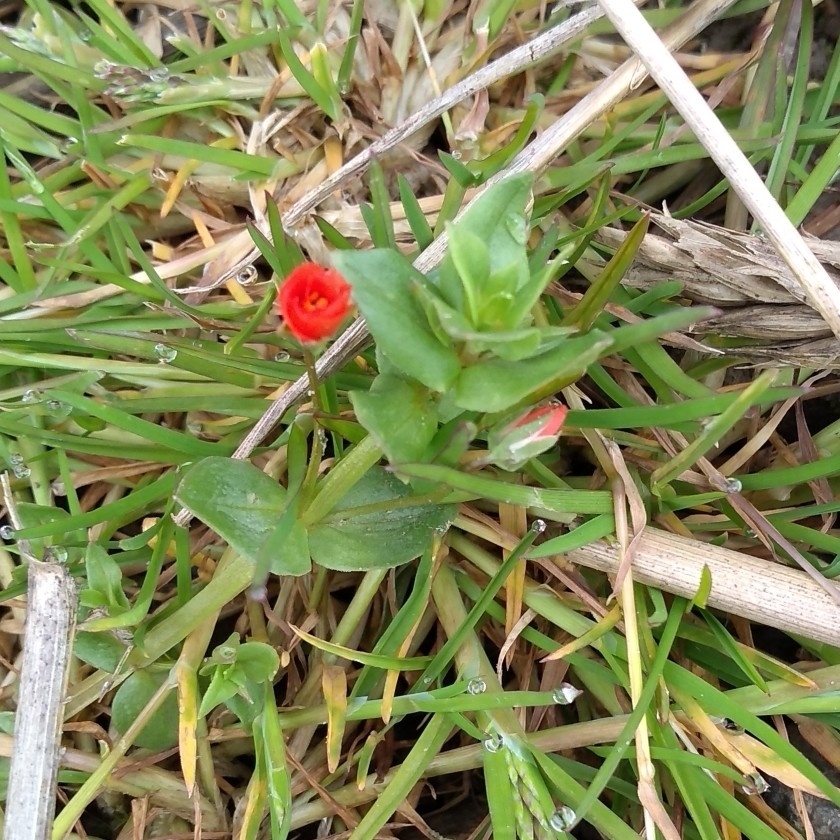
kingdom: Plantae
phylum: Tracheophyta
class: Magnoliopsida
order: Ericales
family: Primulaceae
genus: Lysimachia
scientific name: Lysimachia arvensis
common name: Scarlet pimpernel
